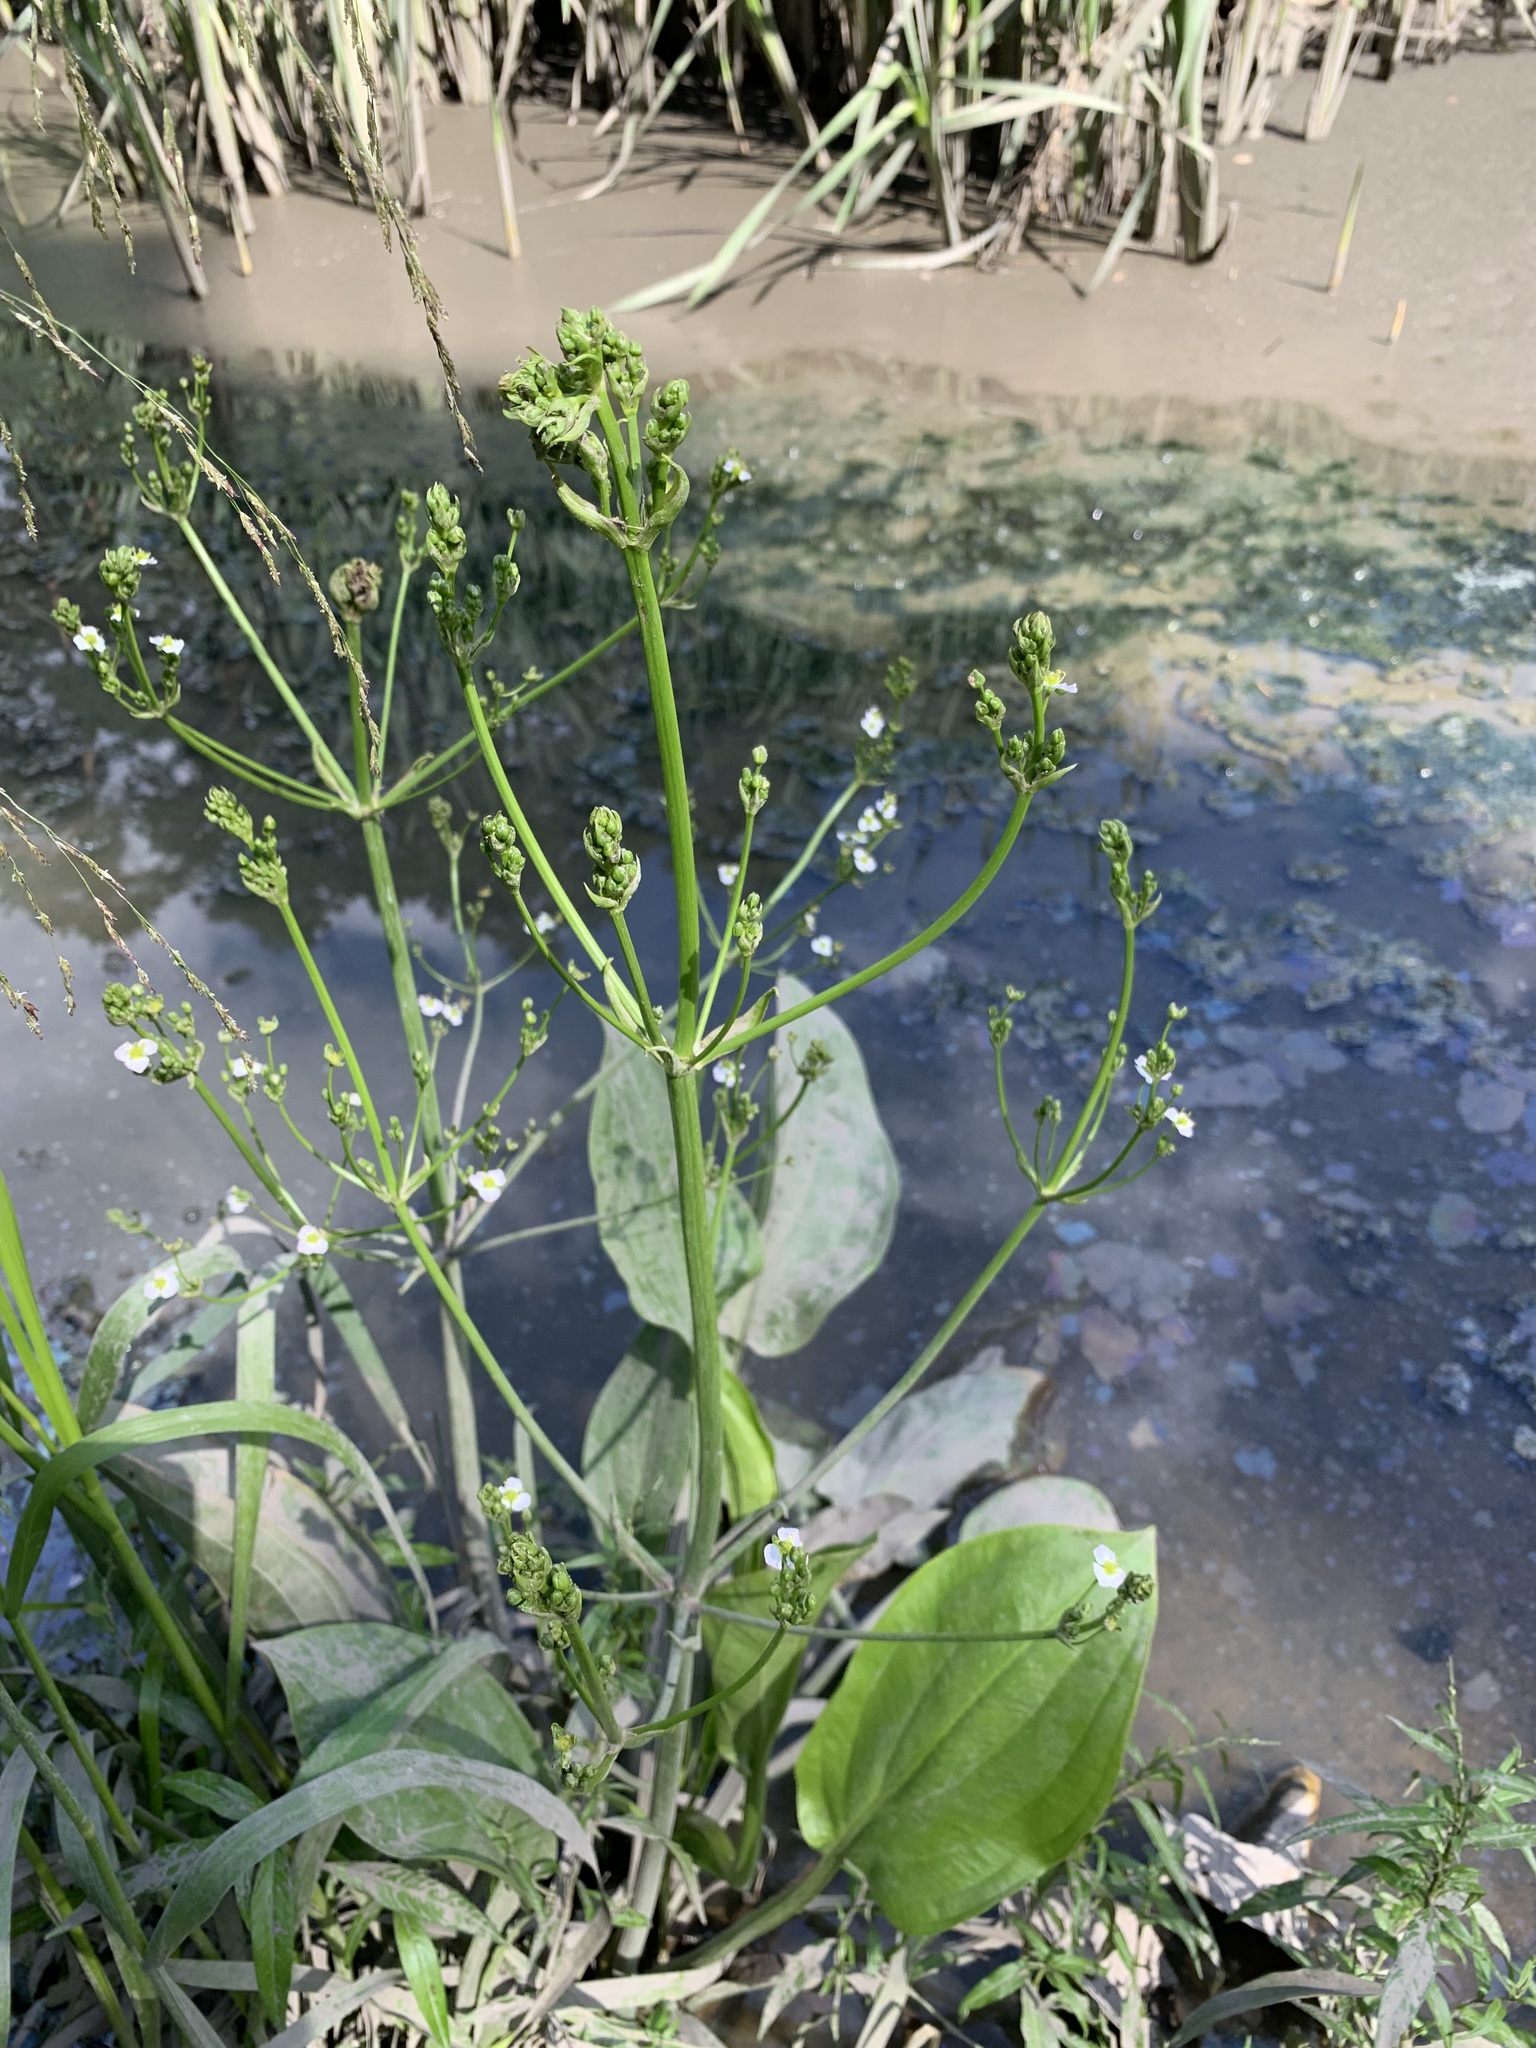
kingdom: Plantae
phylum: Tracheophyta
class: Liliopsida
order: Alismatales
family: Alismataceae
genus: Alisma
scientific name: Alisma plantago-aquatica
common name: Water-plantain
